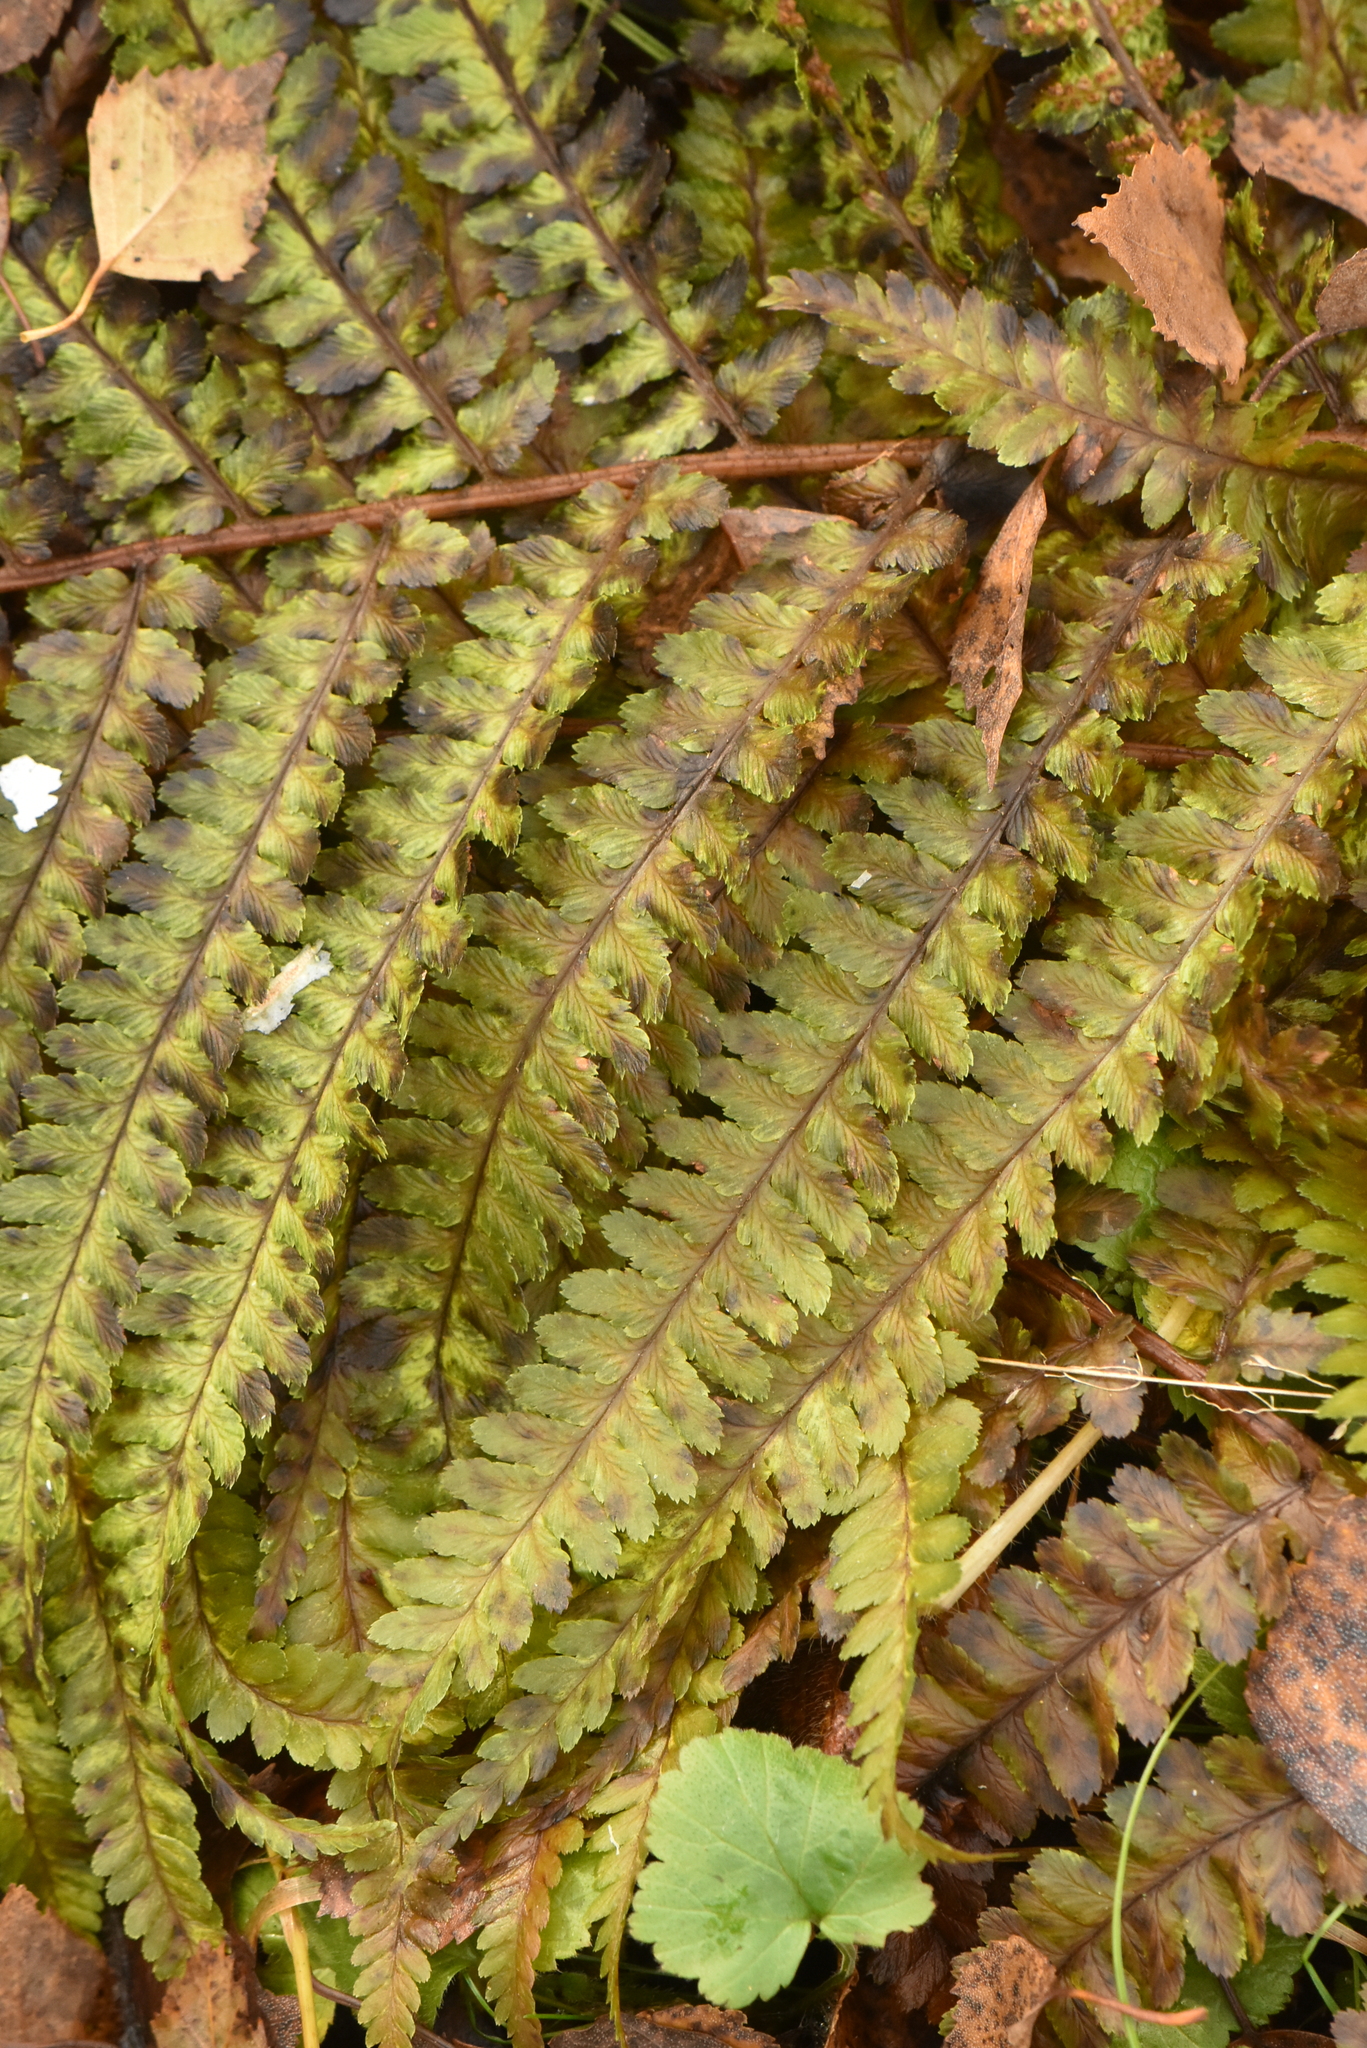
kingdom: Plantae
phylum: Tracheophyta
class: Polypodiopsida
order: Polypodiales
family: Dryopteridaceae
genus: Dryopteris
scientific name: Dryopteris filix-mas
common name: Male fern
